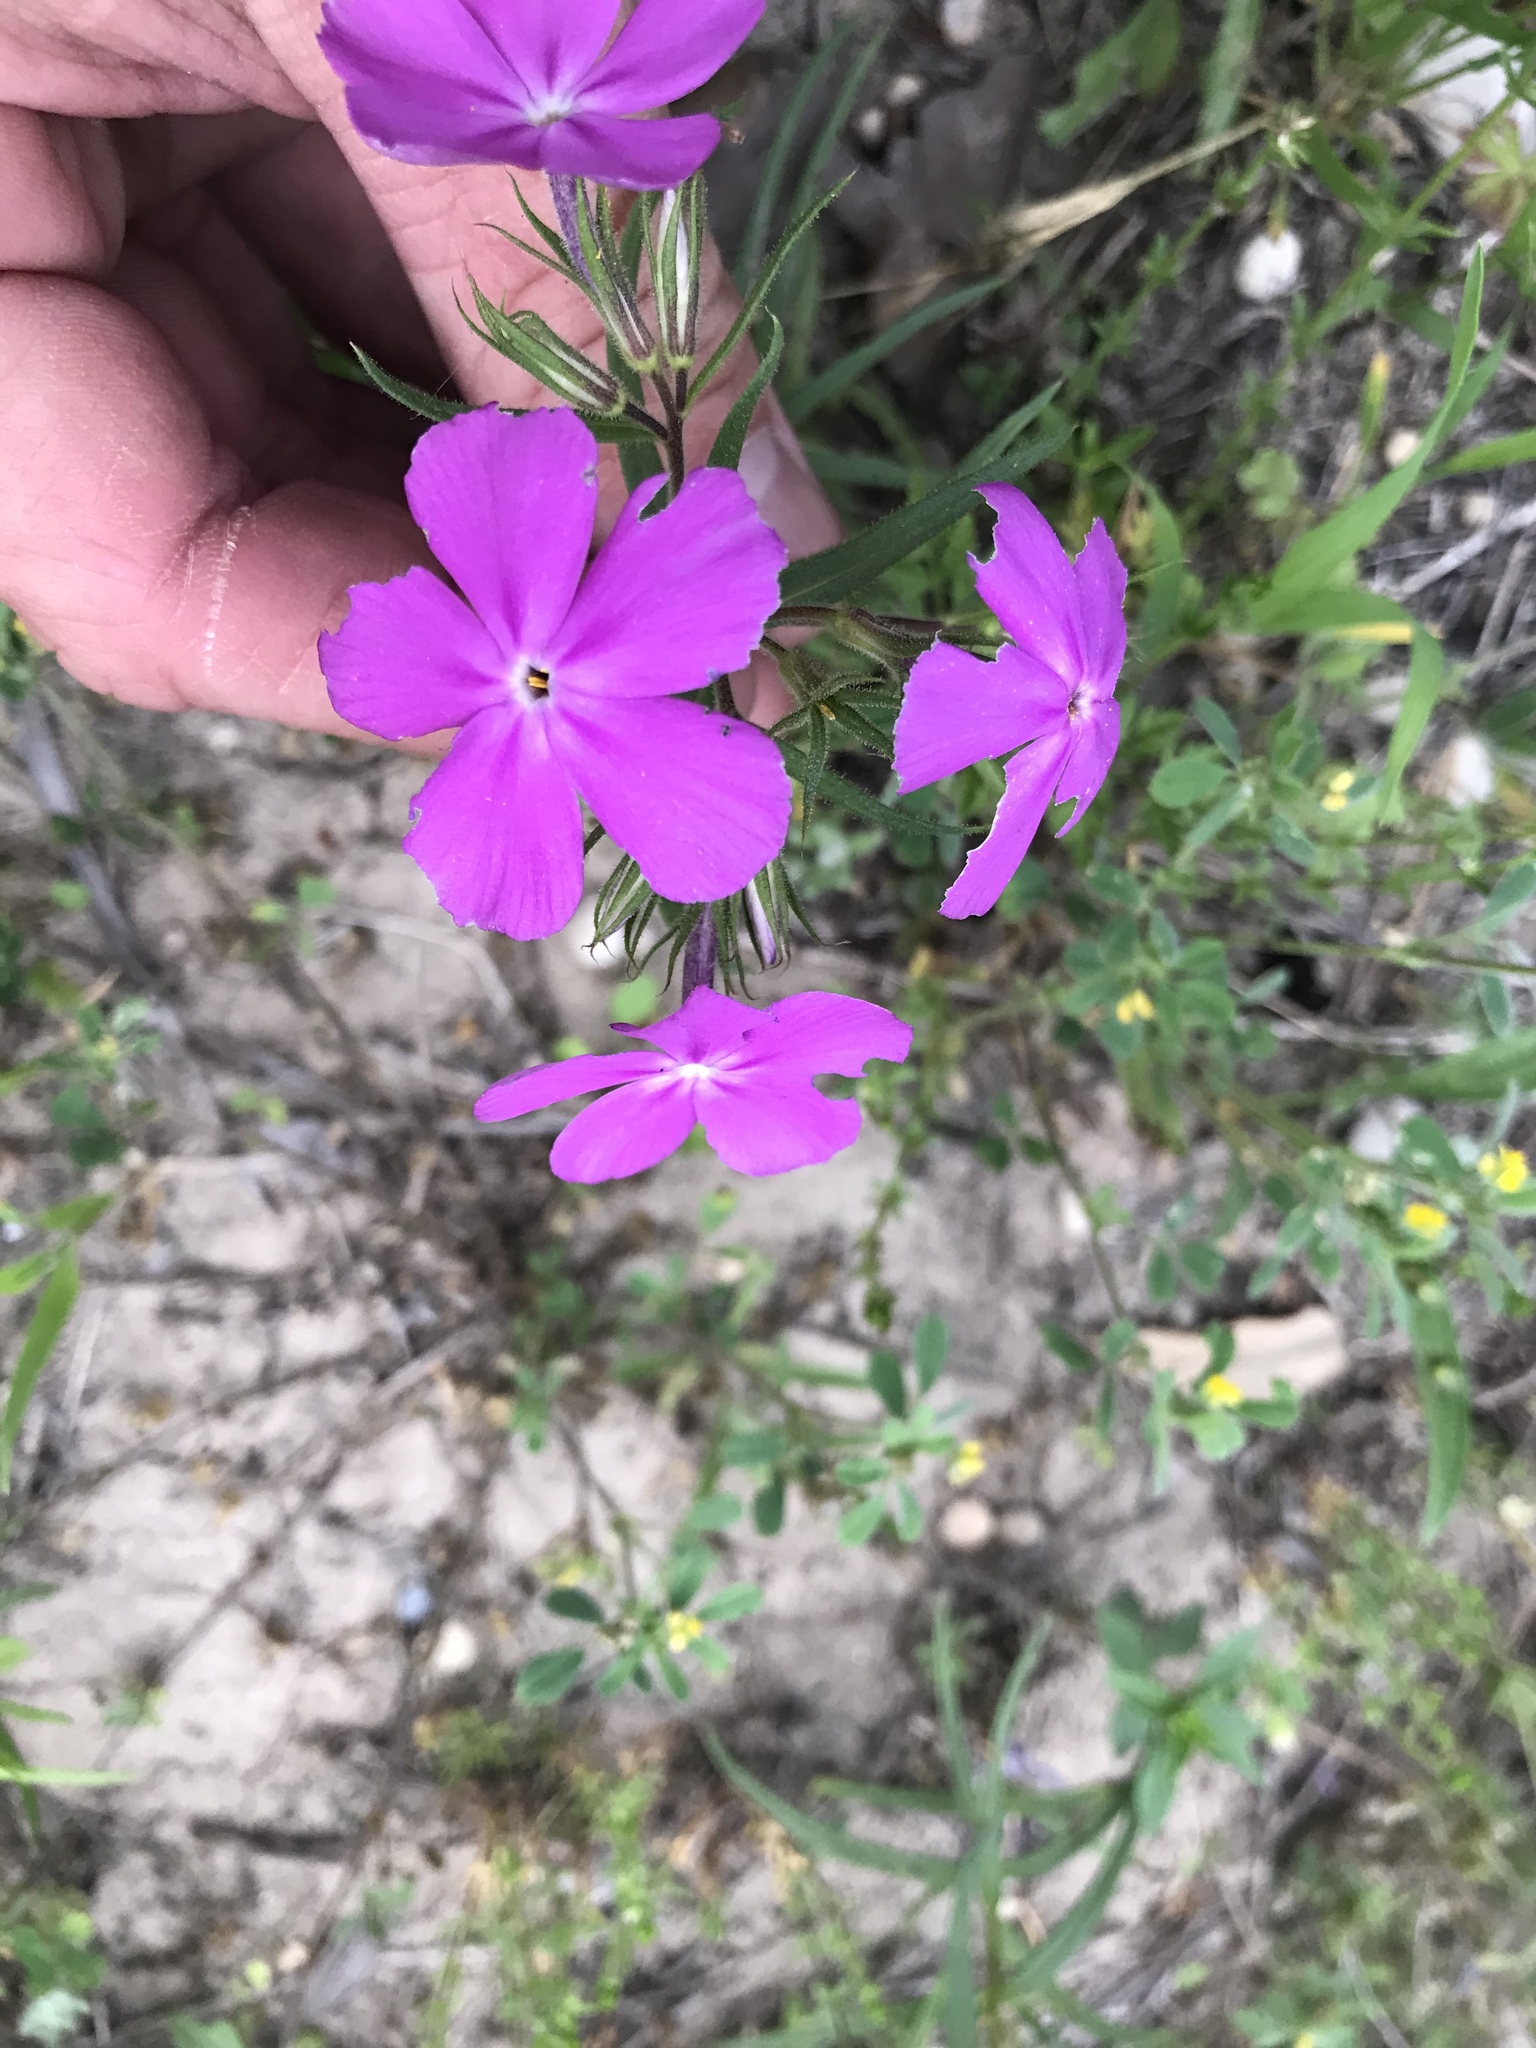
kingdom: Plantae
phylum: Tracheophyta
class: Magnoliopsida
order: Ericales
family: Polemoniaceae
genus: Phlox
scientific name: Phlox pilosa
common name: Prairie phlox
